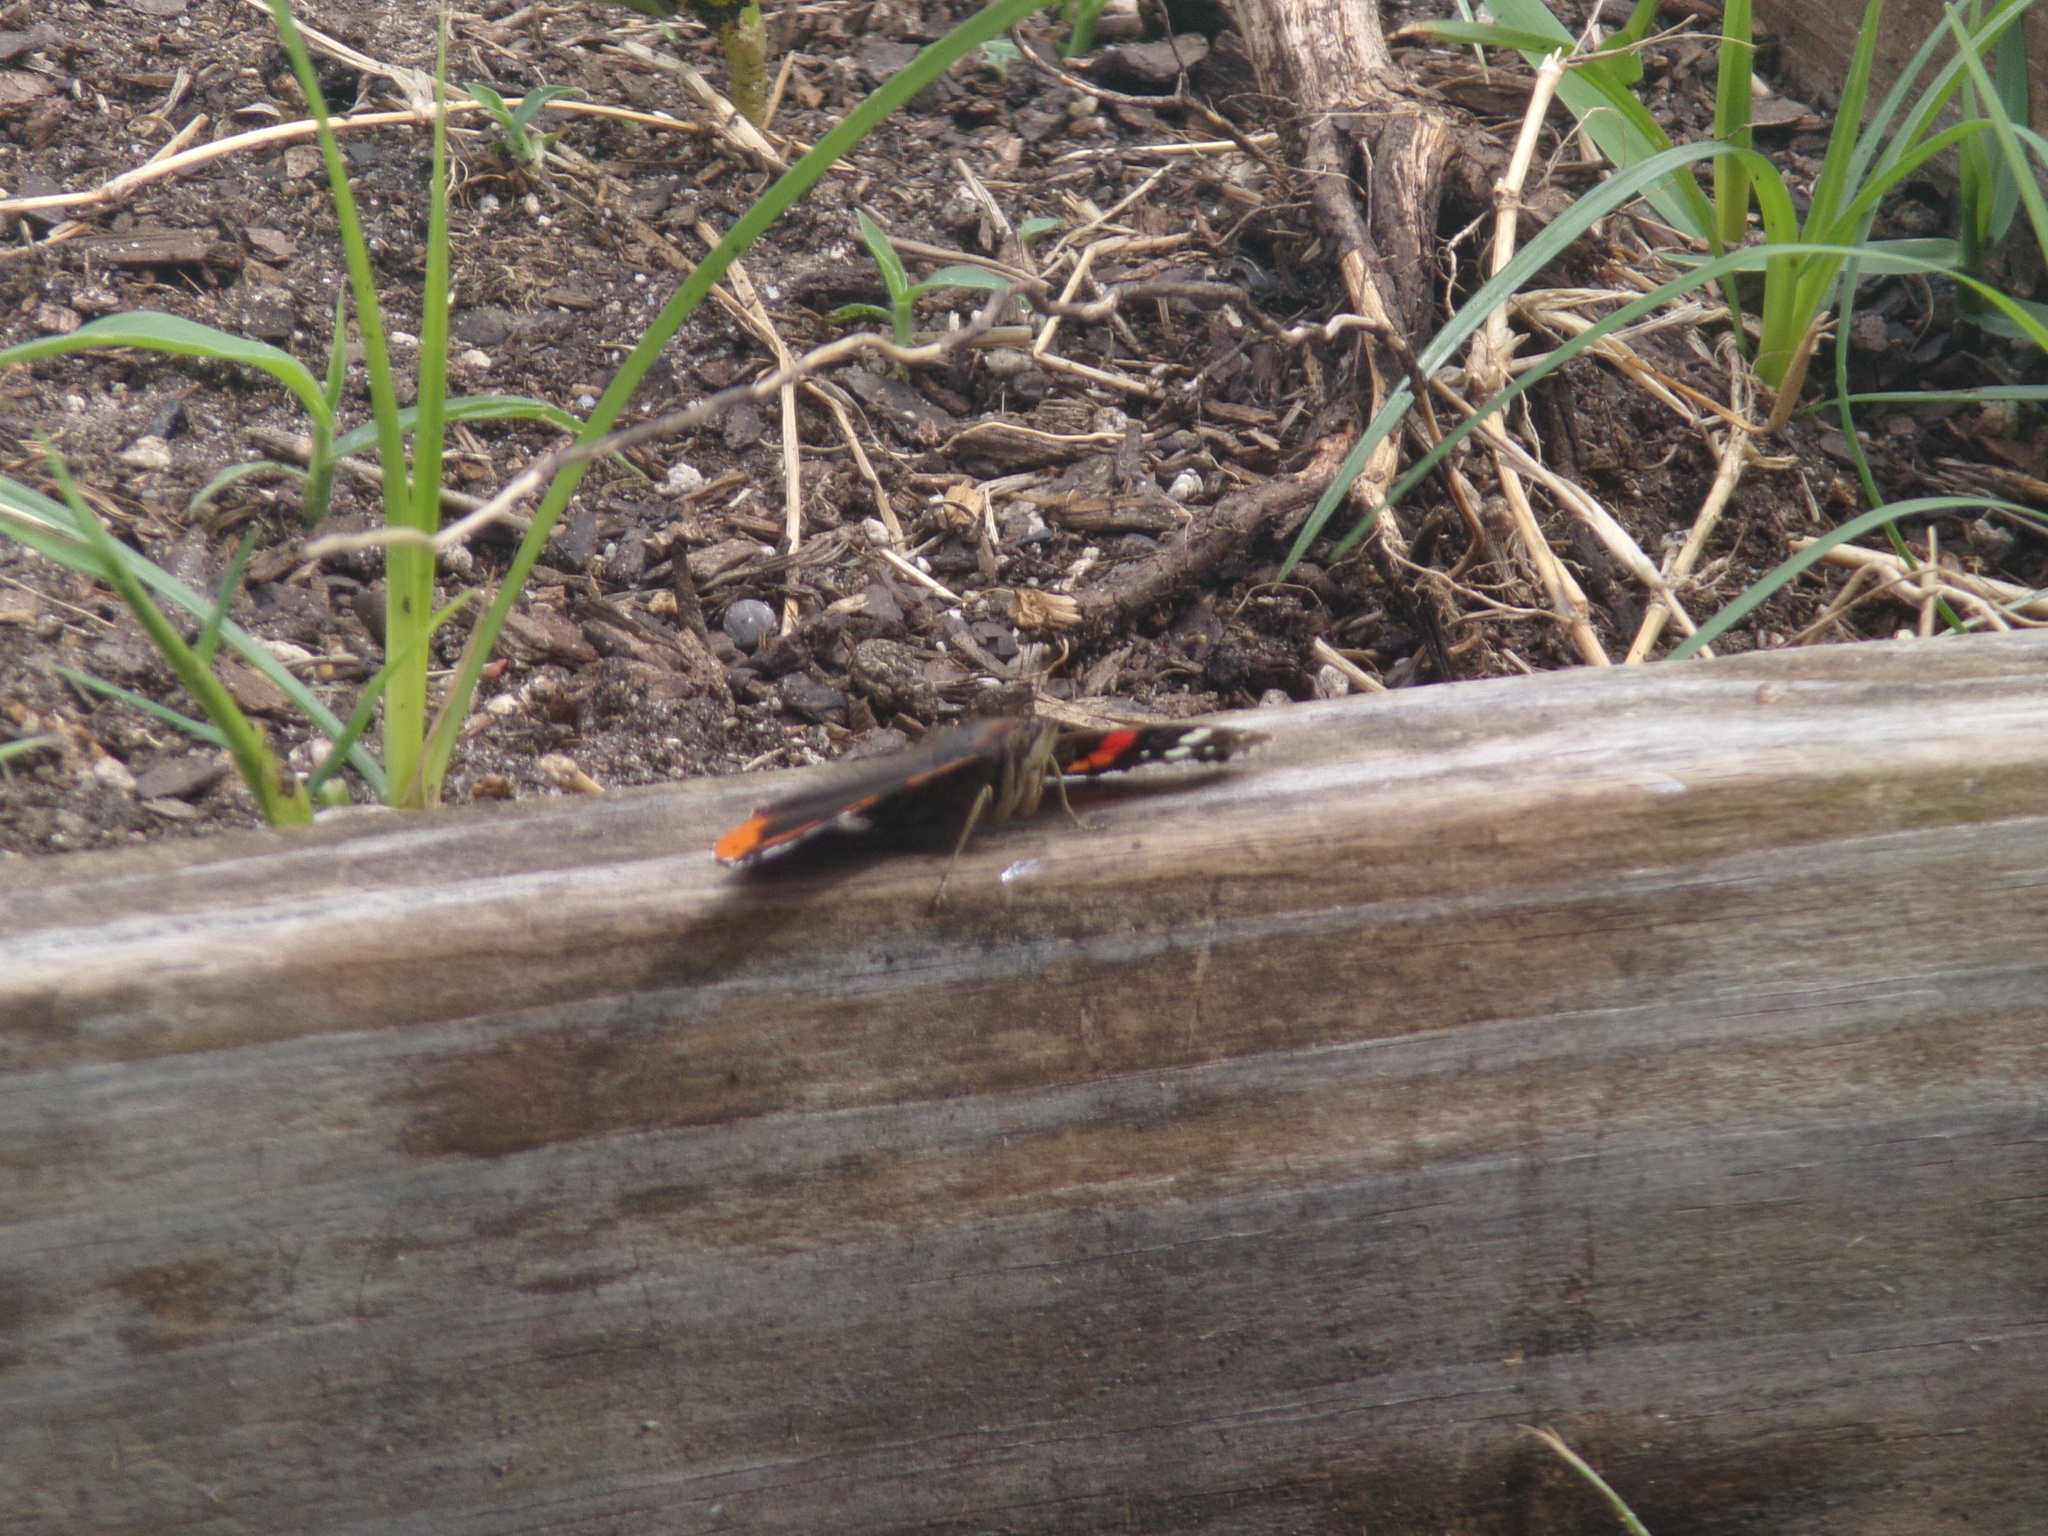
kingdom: Animalia
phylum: Arthropoda
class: Insecta
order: Lepidoptera
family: Nymphalidae
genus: Vanessa
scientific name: Vanessa atalanta
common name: Red admiral
